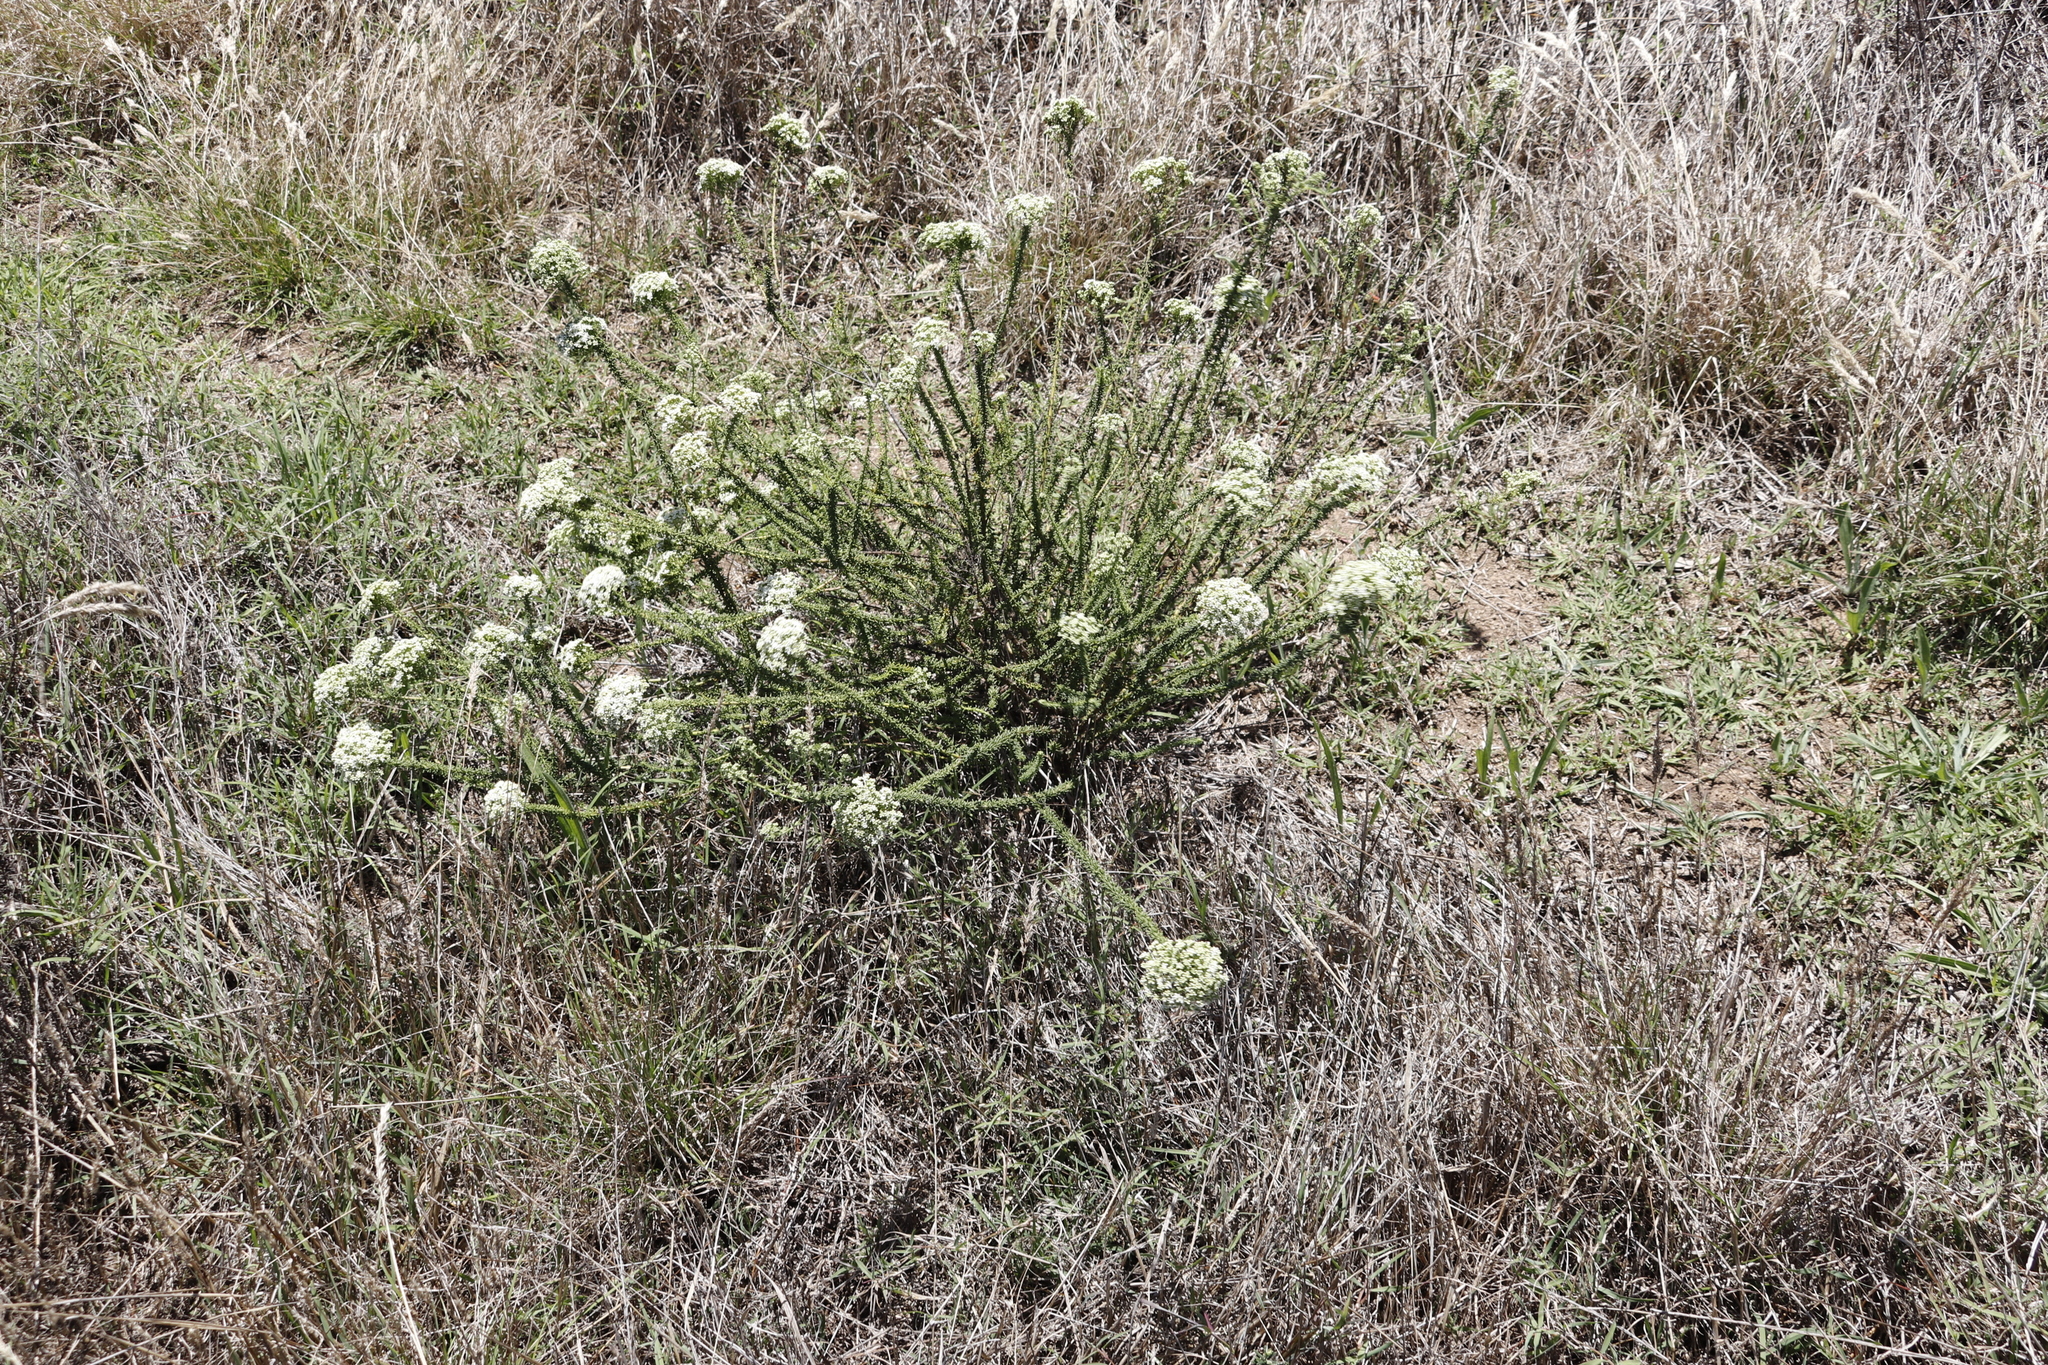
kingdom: Plantae
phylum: Tracheophyta
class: Magnoliopsida
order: Lamiales
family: Scrophulariaceae
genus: Selago
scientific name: Selago dolosa
